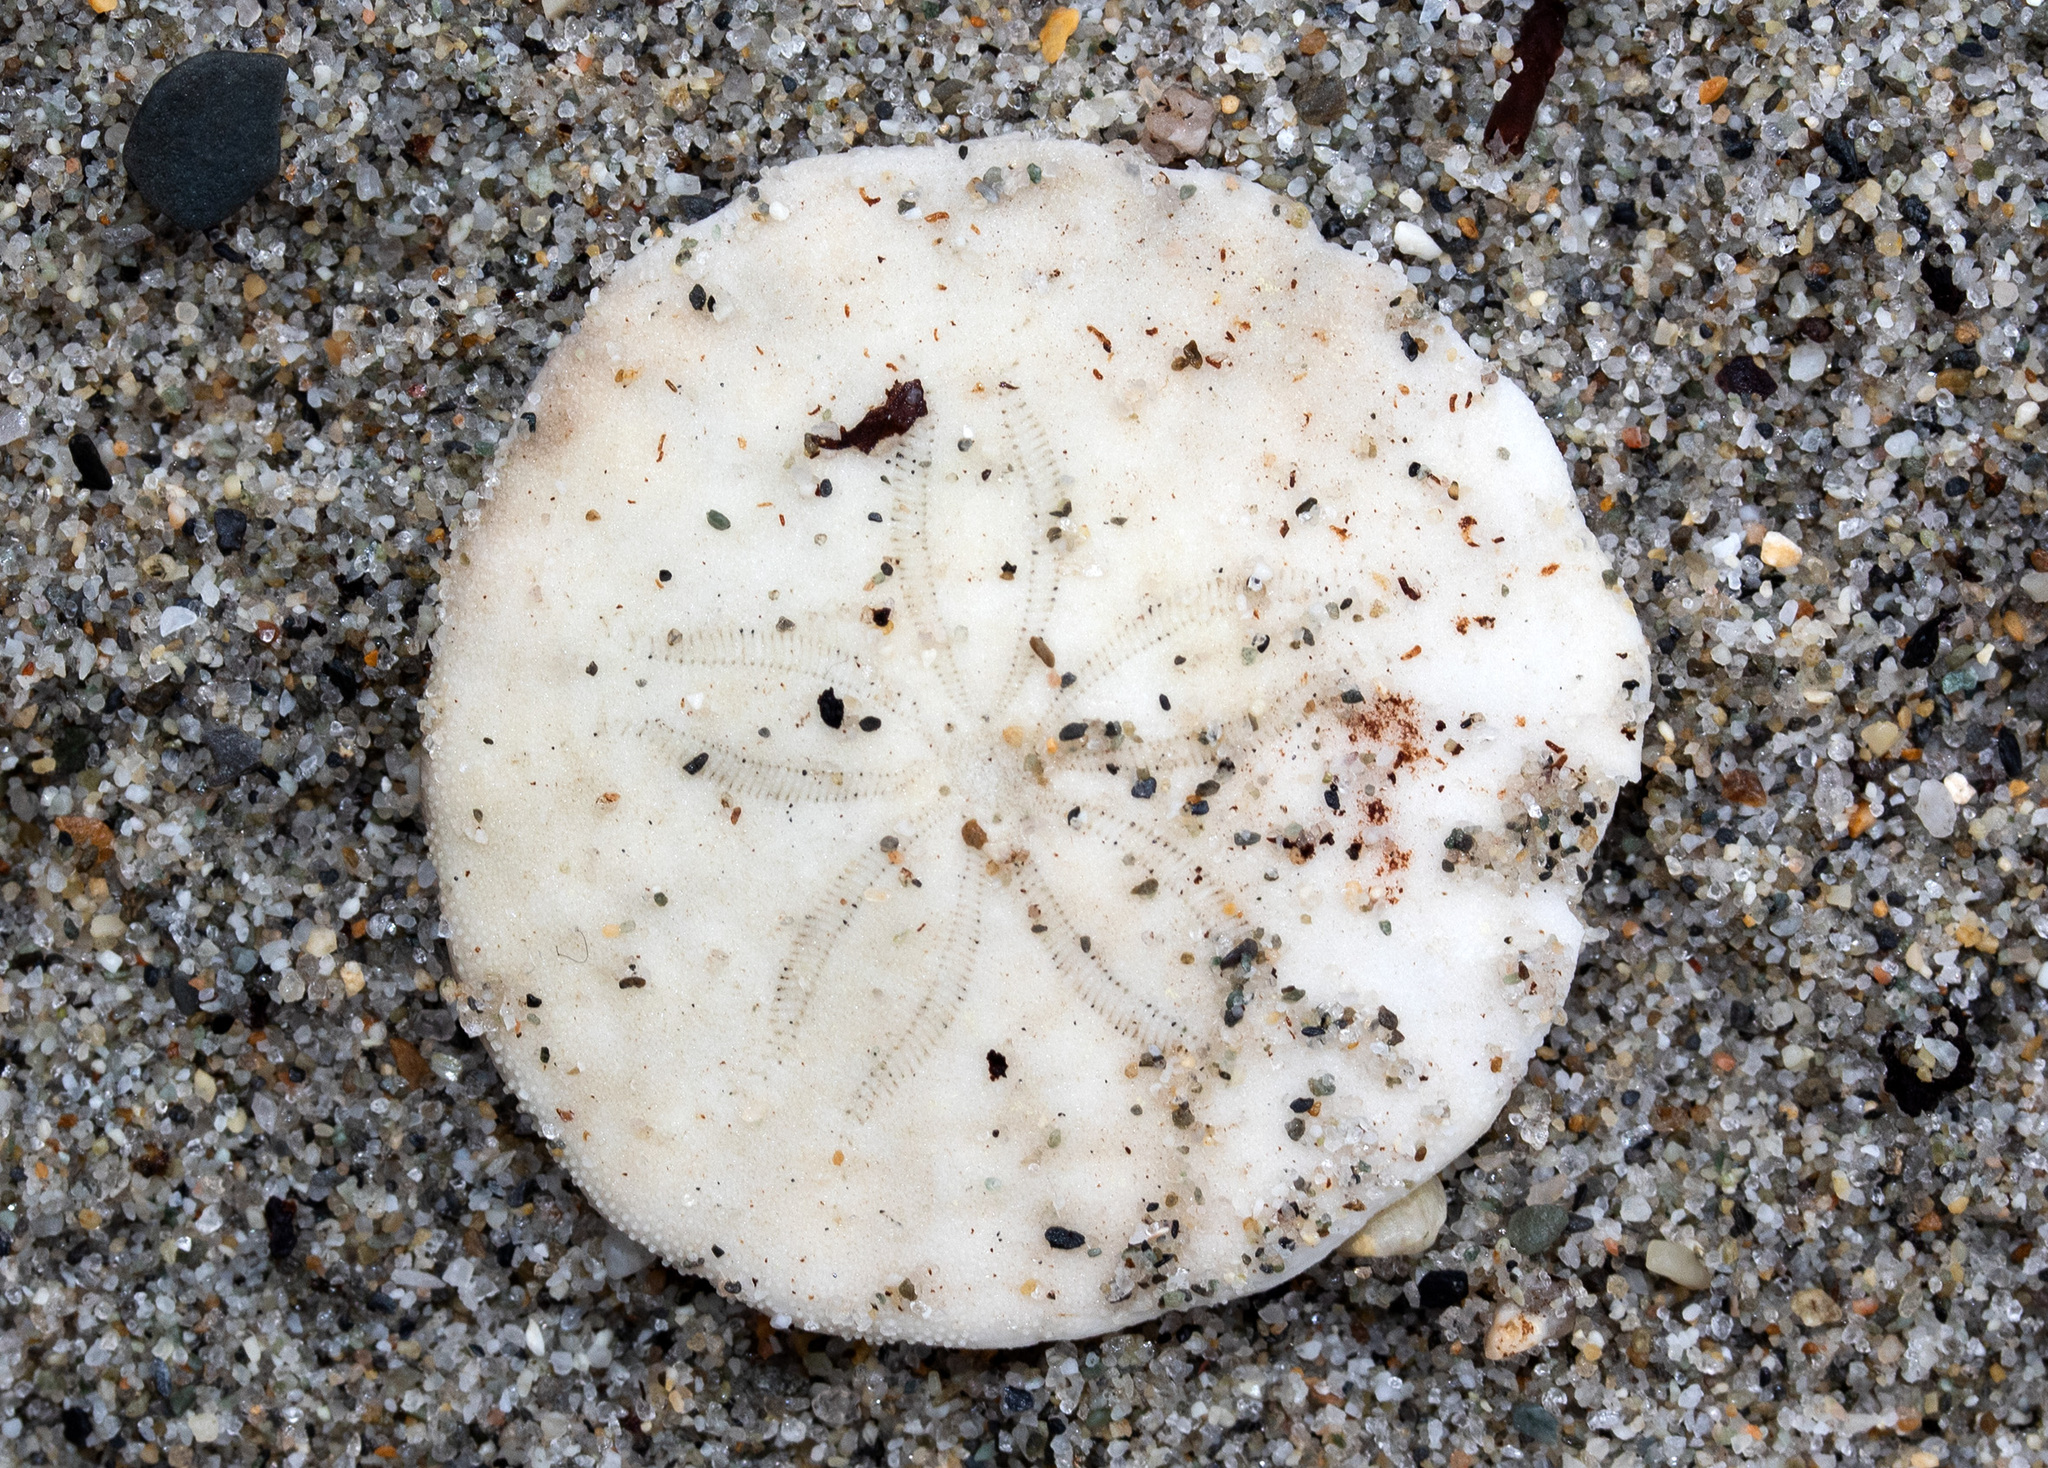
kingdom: Animalia
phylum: Echinodermata
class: Echinoidea
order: Echinolampadacea
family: Echinarachniidae
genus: Echinarachnius
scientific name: Echinarachnius parma
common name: Common sand dollar
